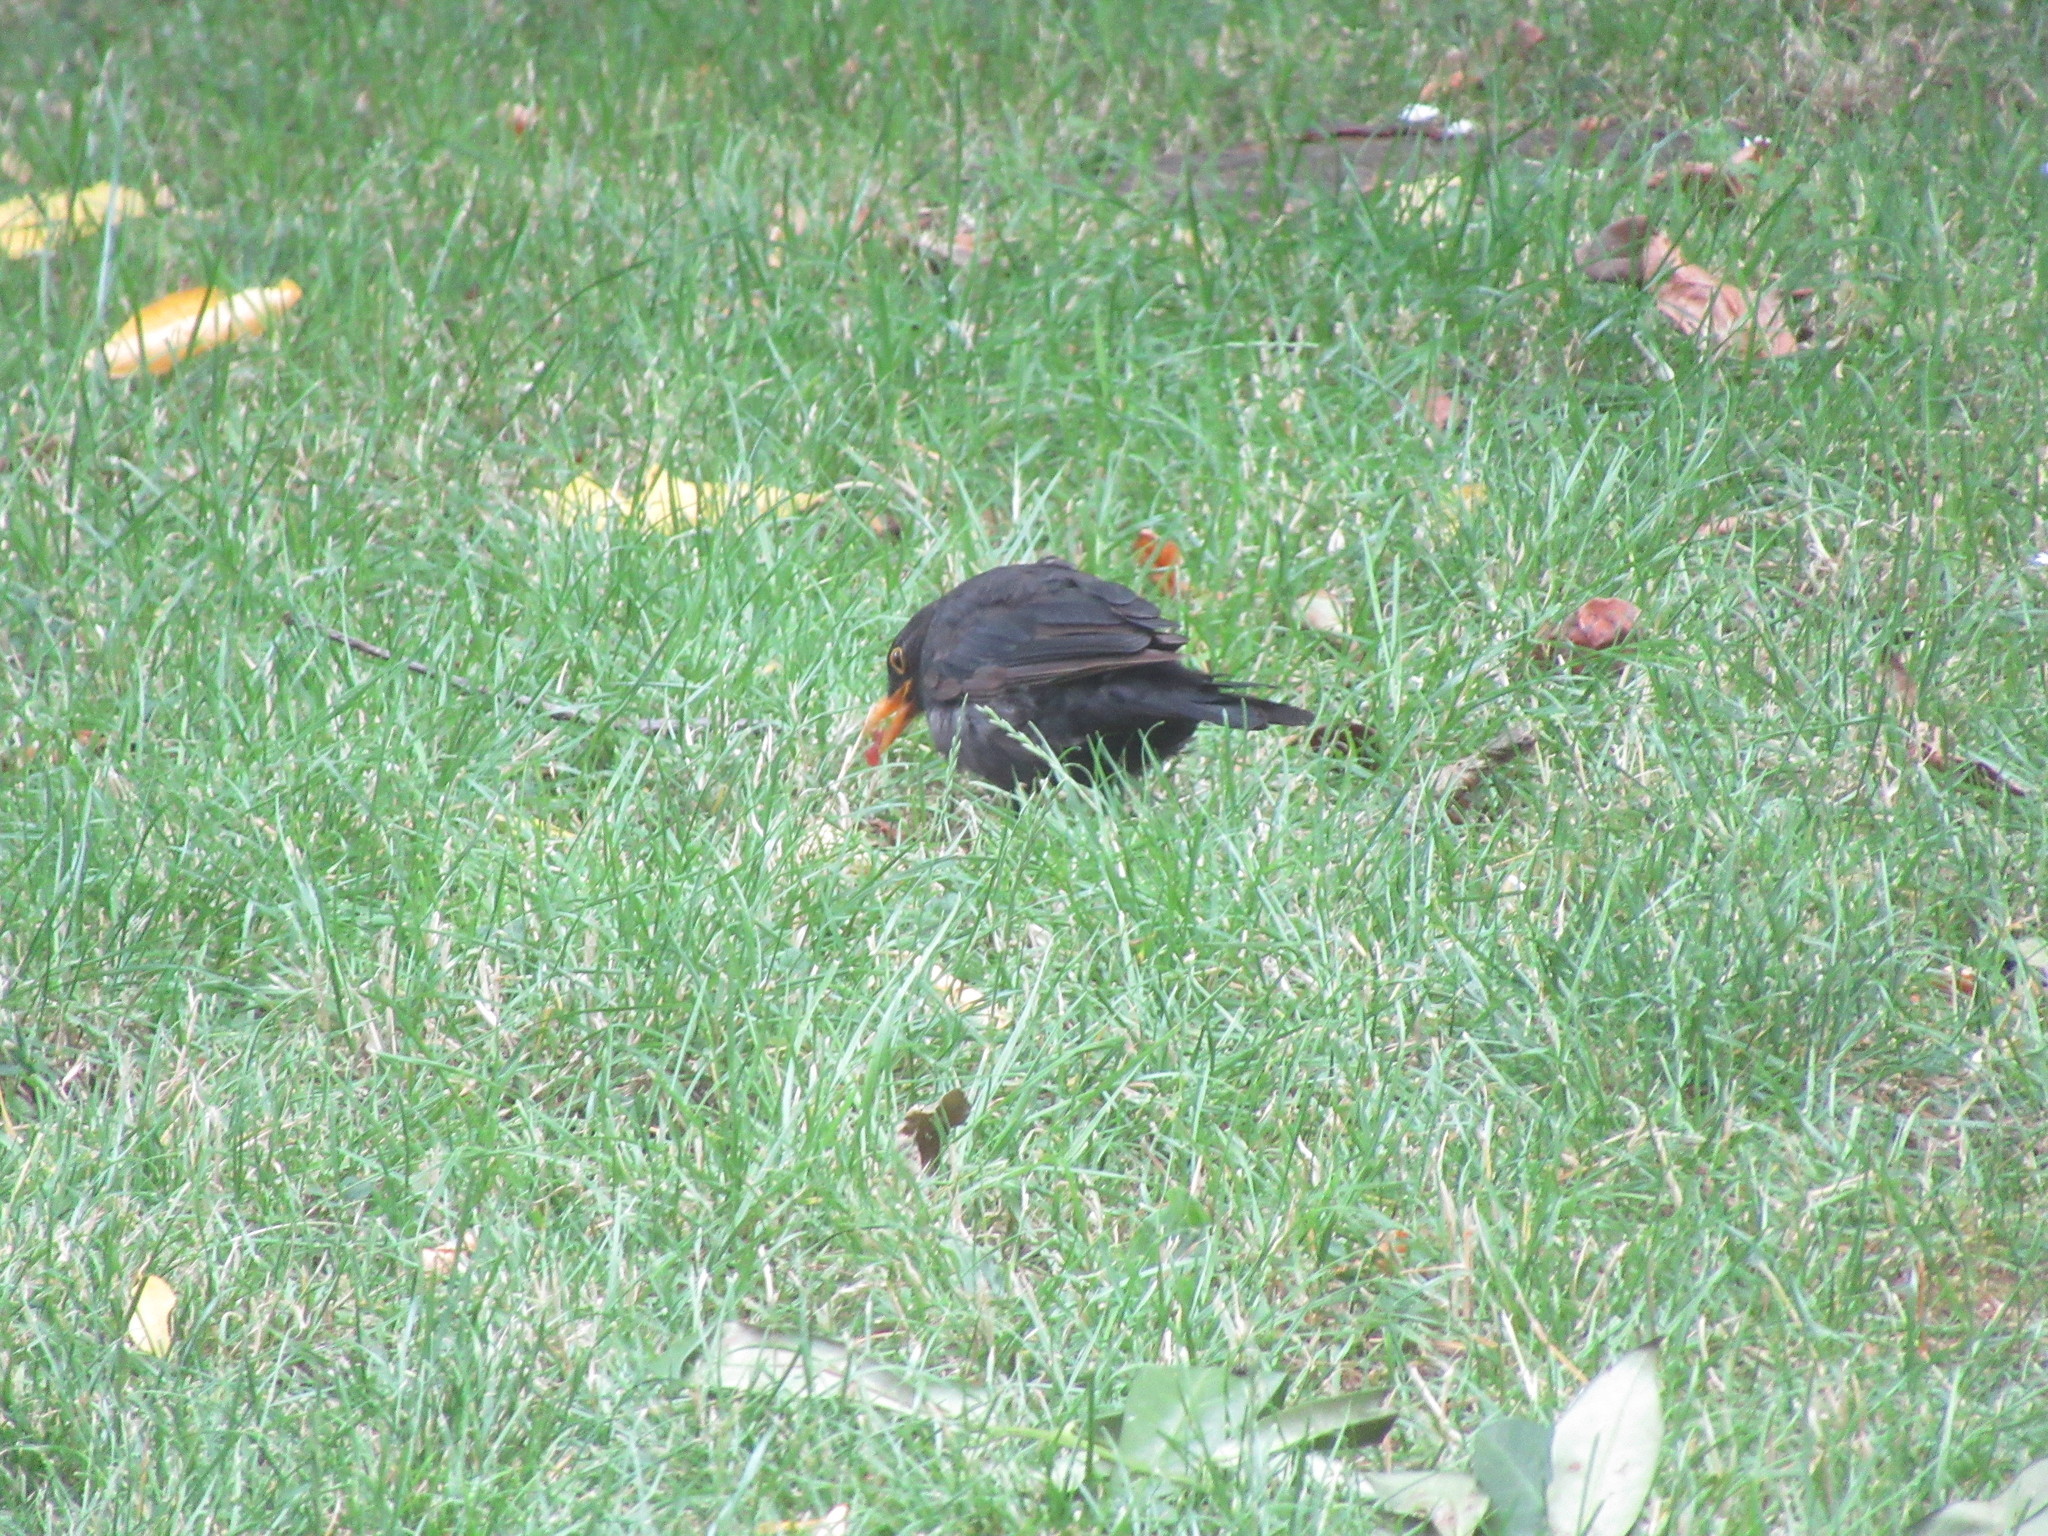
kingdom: Animalia
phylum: Chordata
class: Aves
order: Passeriformes
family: Turdidae
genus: Turdus
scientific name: Turdus merula
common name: Common blackbird
